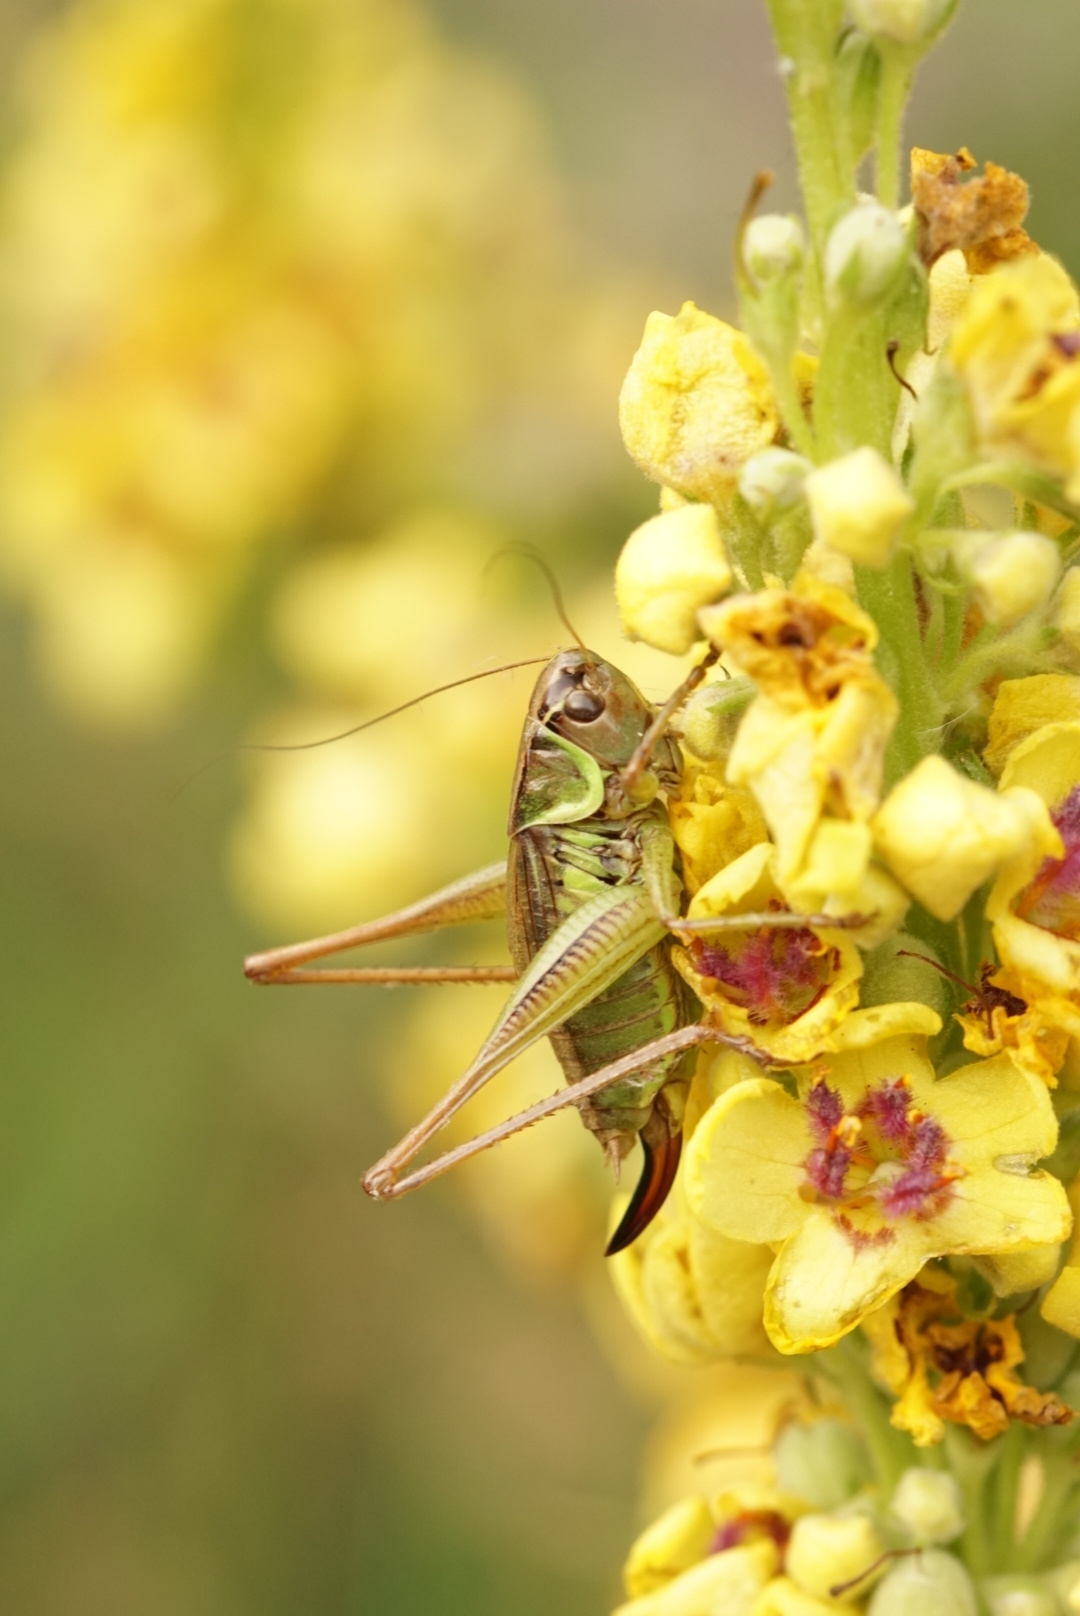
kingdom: Animalia
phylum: Arthropoda
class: Insecta
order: Orthoptera
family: Tettigoniidae
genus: Roeseliana
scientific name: Roeseliana roeselii
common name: Roesel's bush cricket
